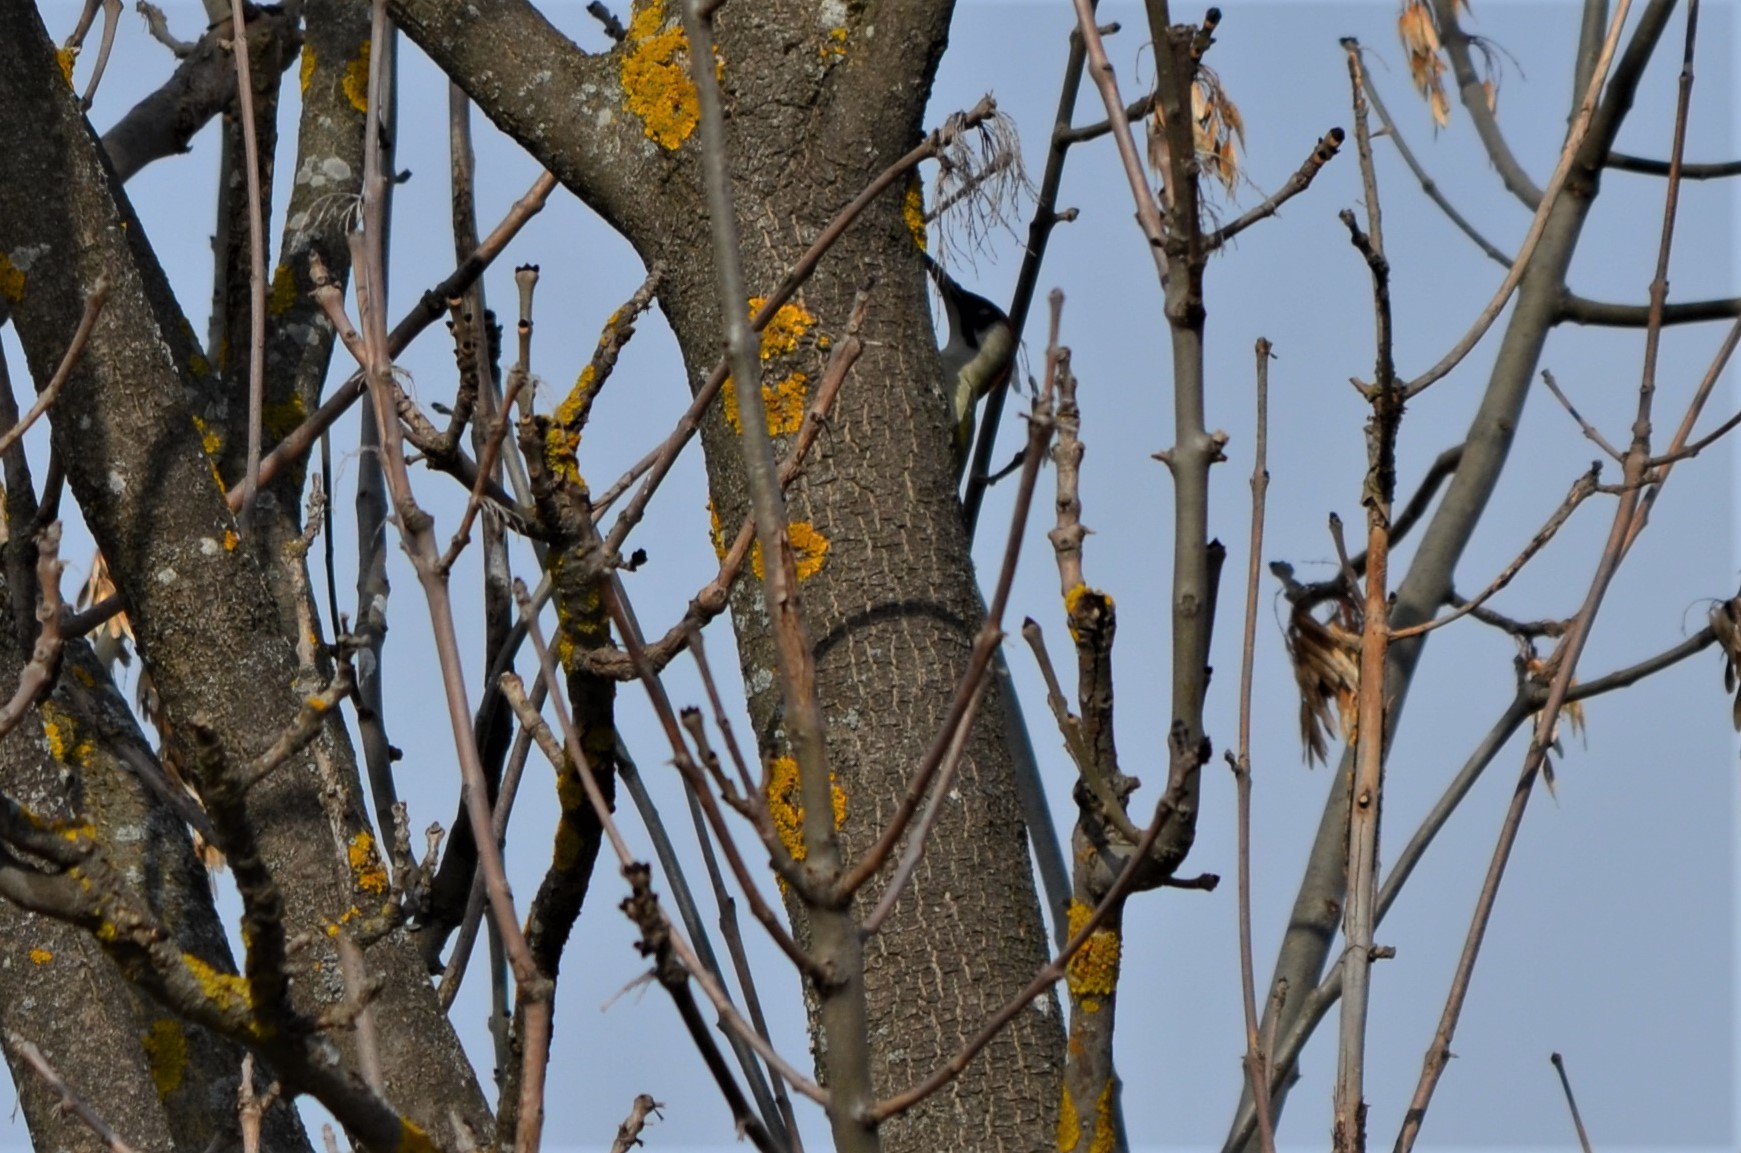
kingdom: Animalia
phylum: Chordata
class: Aves
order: Piciformes
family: Picidae
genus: Picus
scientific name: Picus viridis
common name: European green woodpecker
